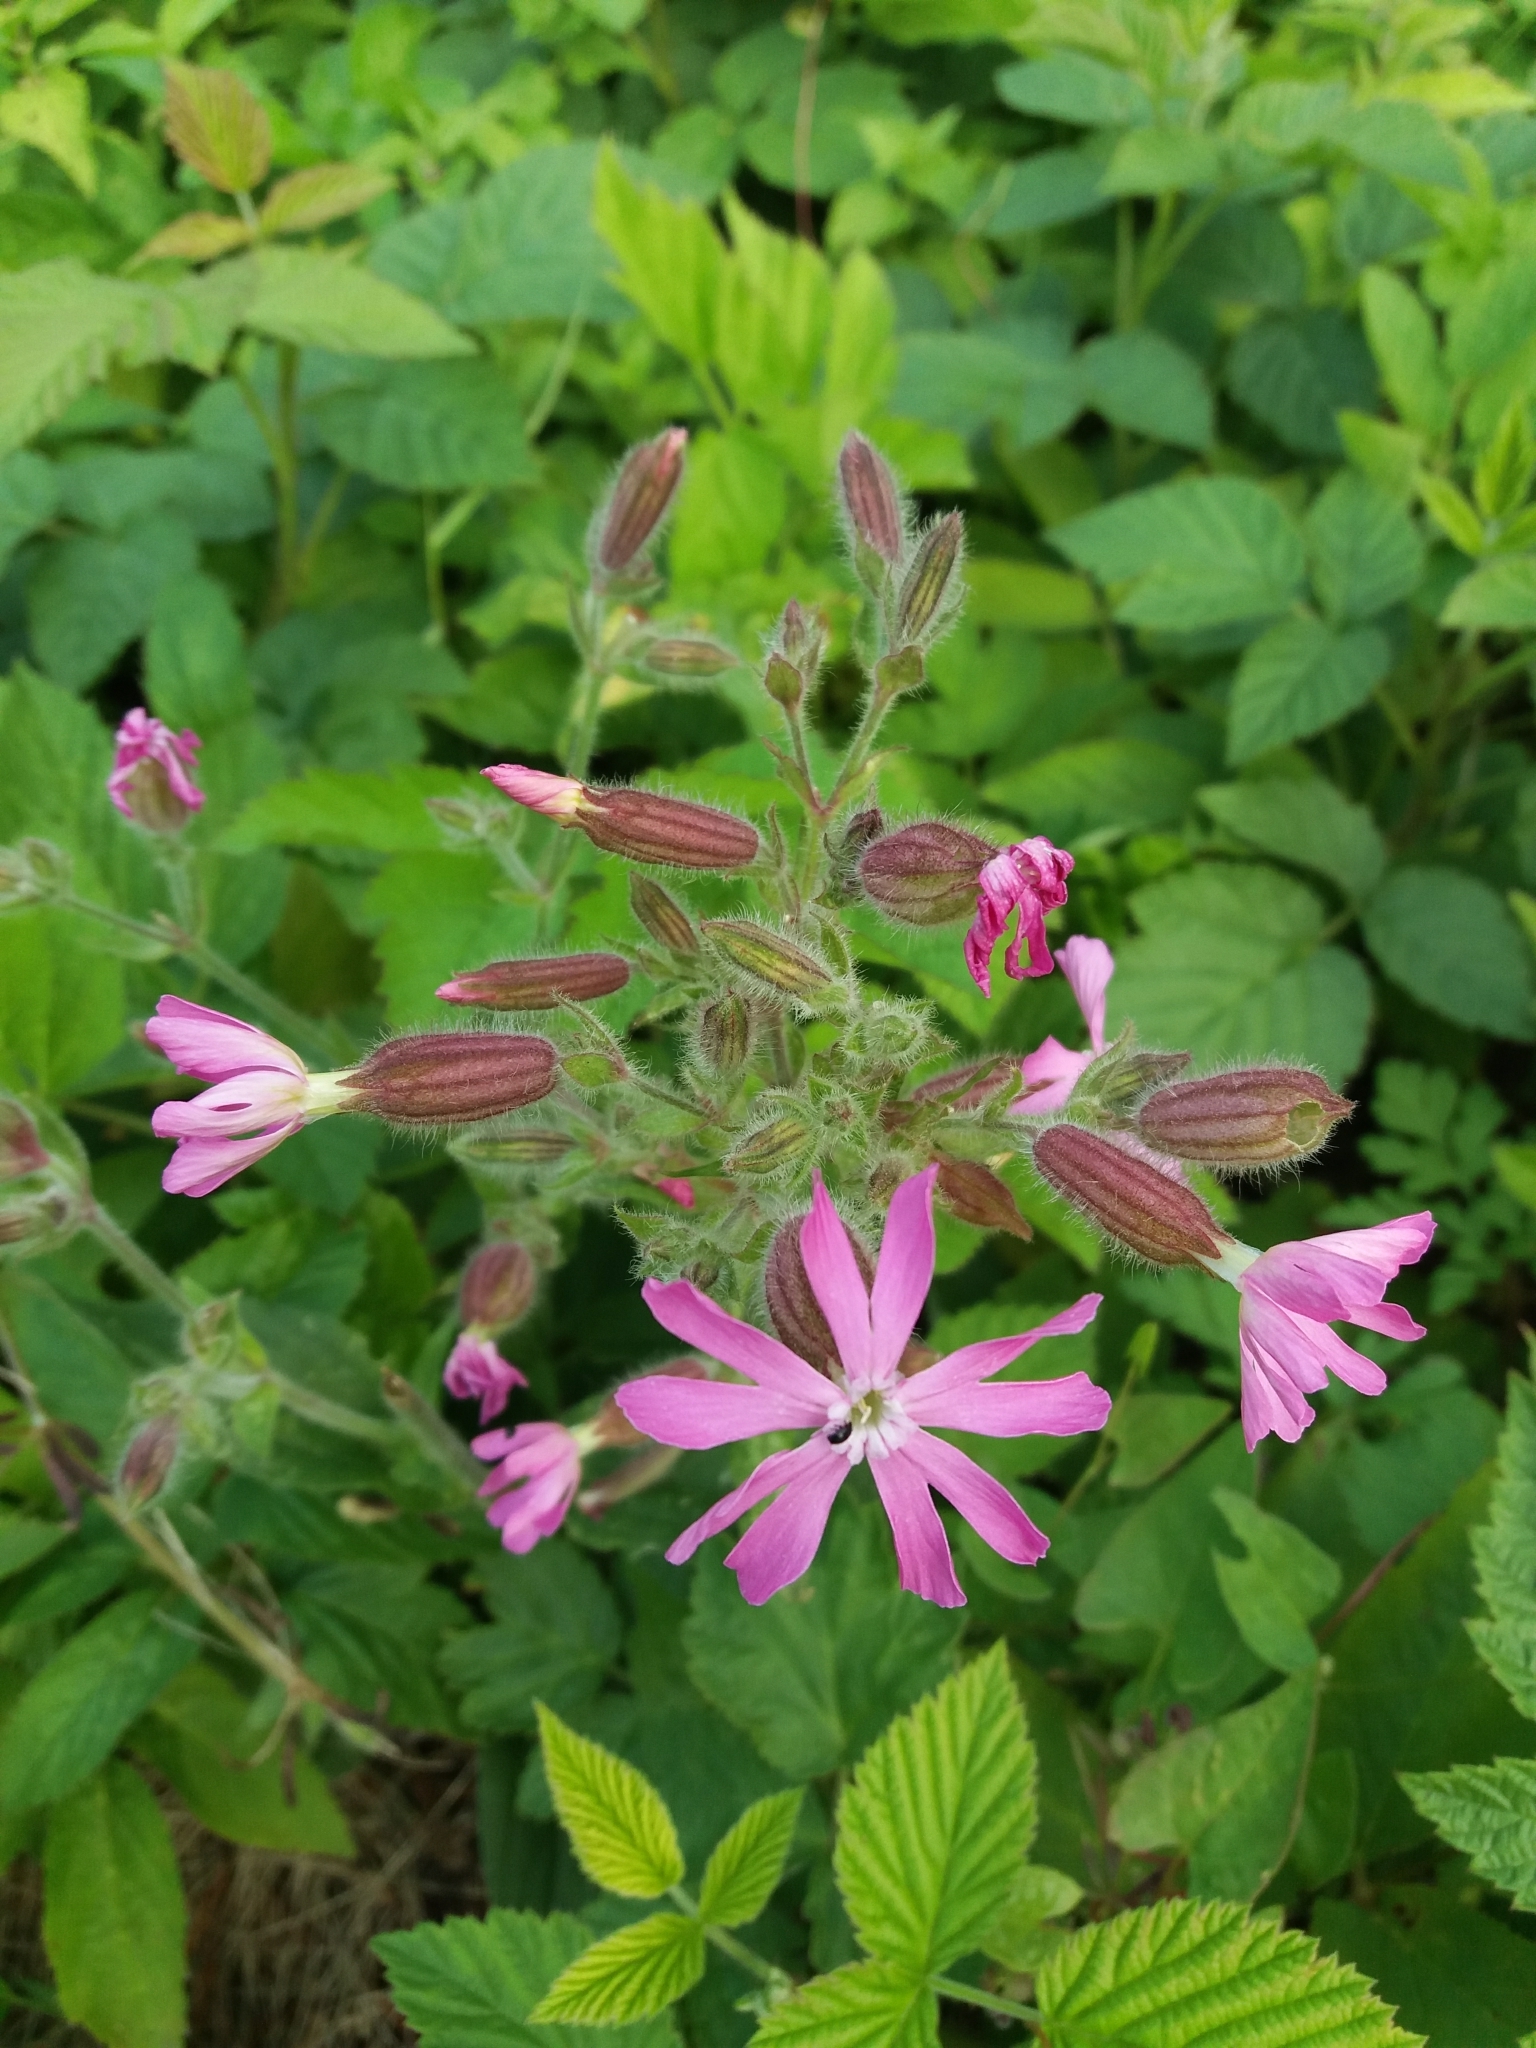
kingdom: Plantae
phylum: Tracheophyta
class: Magnoliopsida
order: Caryophyllales
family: Caryophyllaceae
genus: Silene
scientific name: Silene dioica
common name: Red campion
